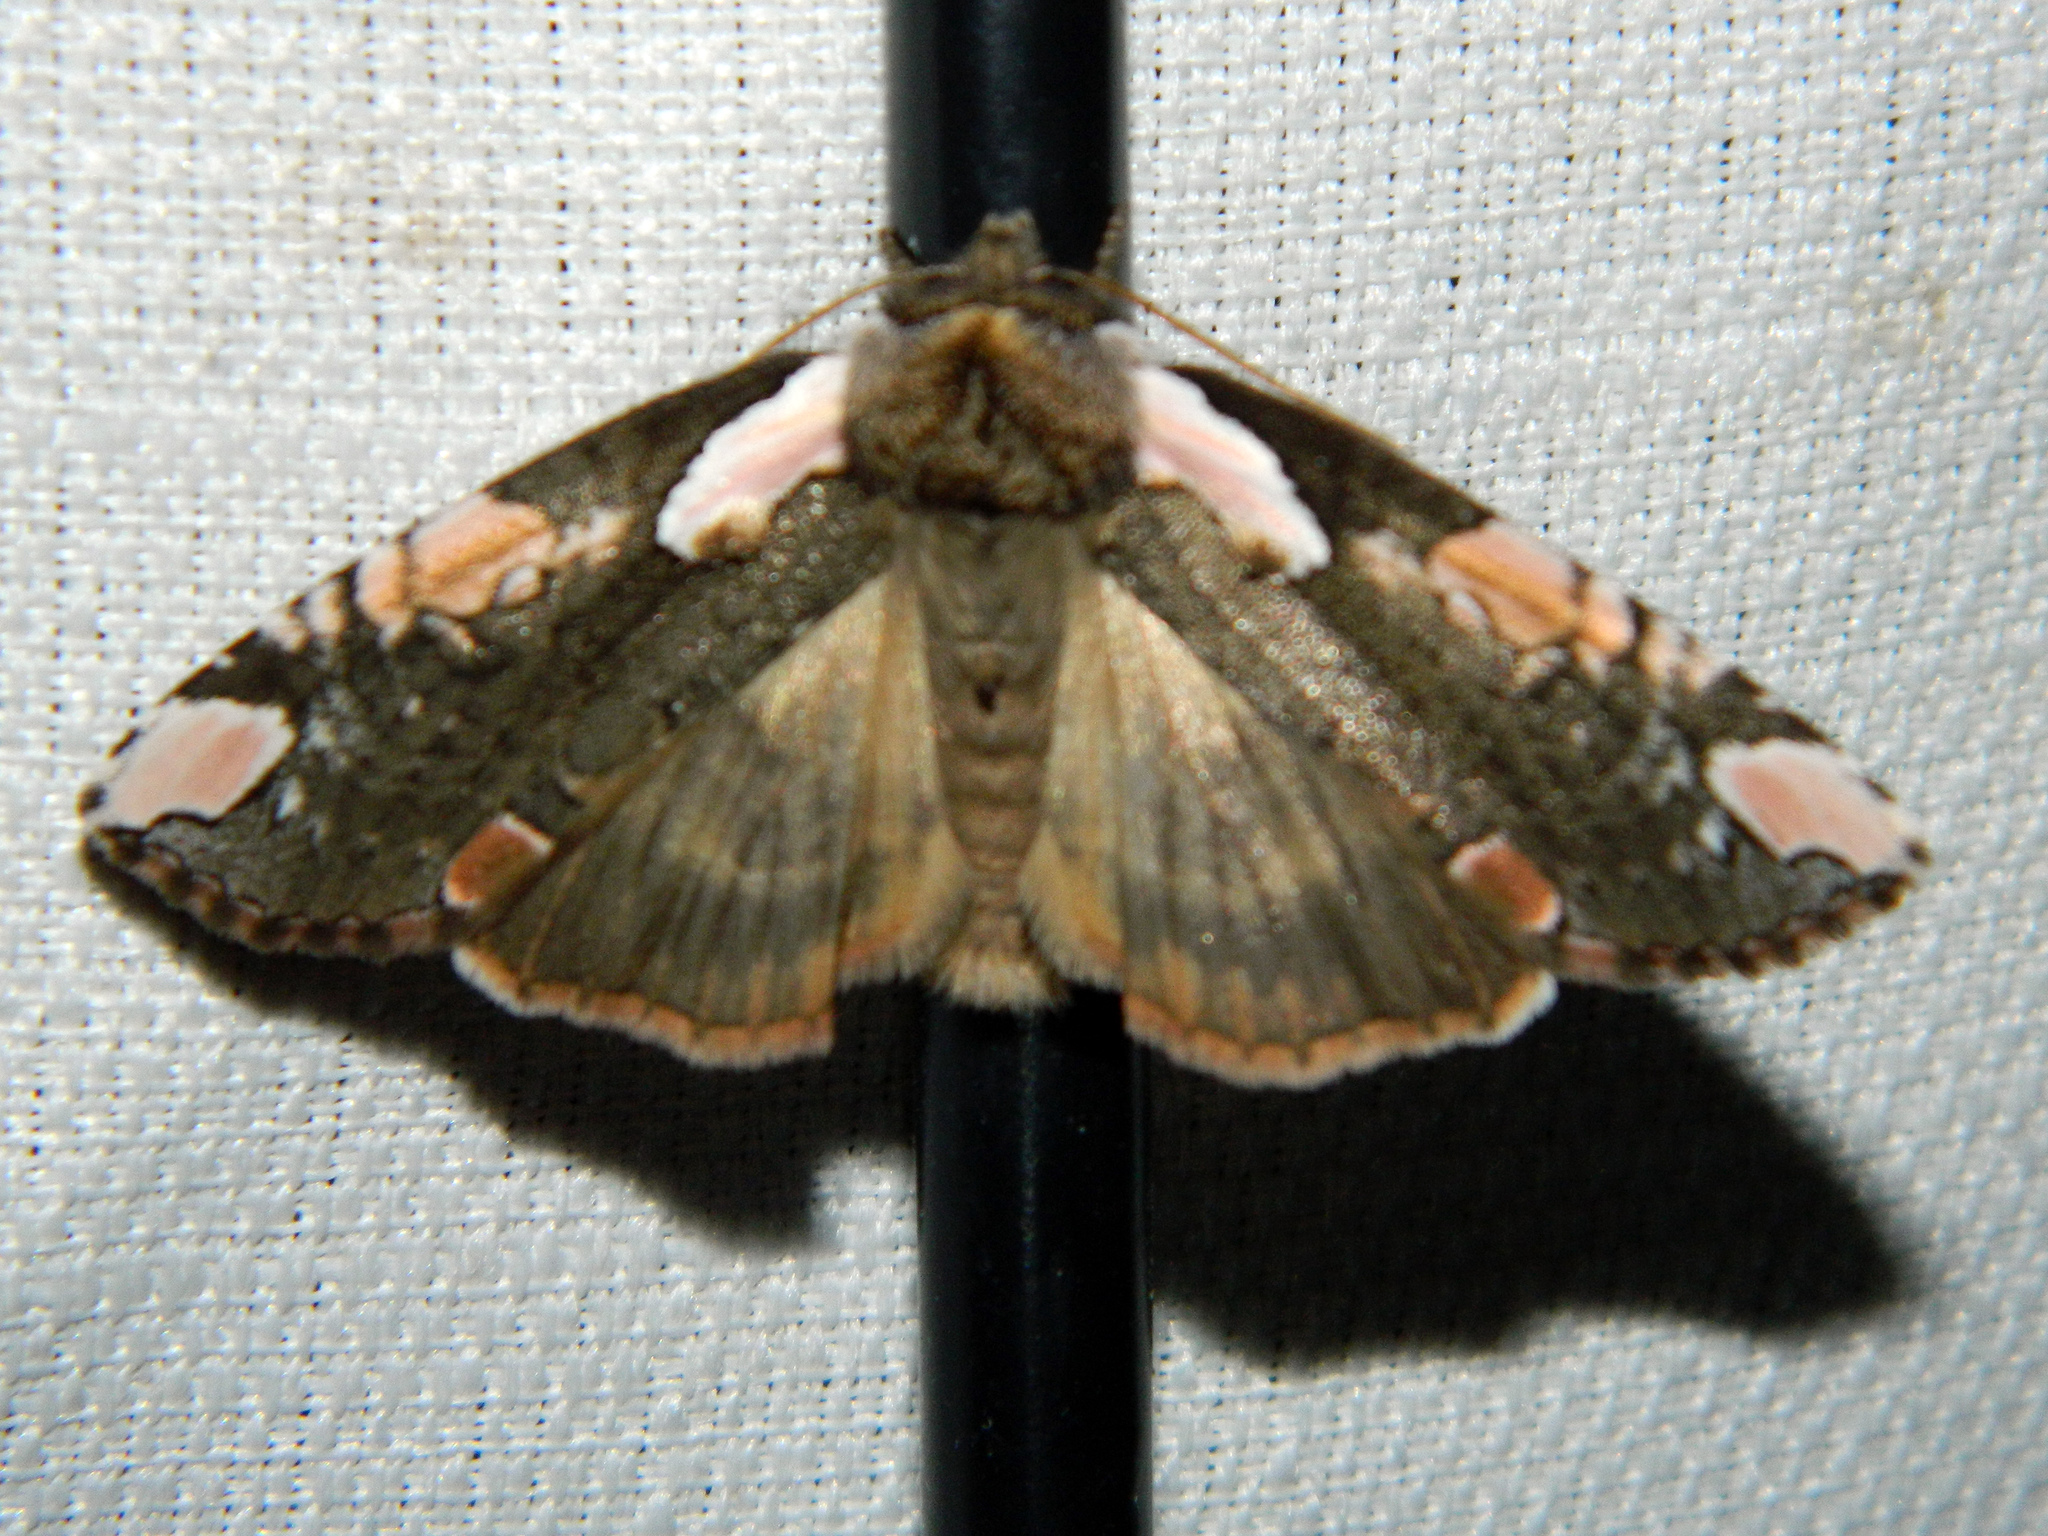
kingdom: Animalia
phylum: Arthropoda
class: Insecta
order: Lepidoptera
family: Drepanidae
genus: Euthyatira
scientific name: Euthyatira pudens
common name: Dogwood thyatirid moth
